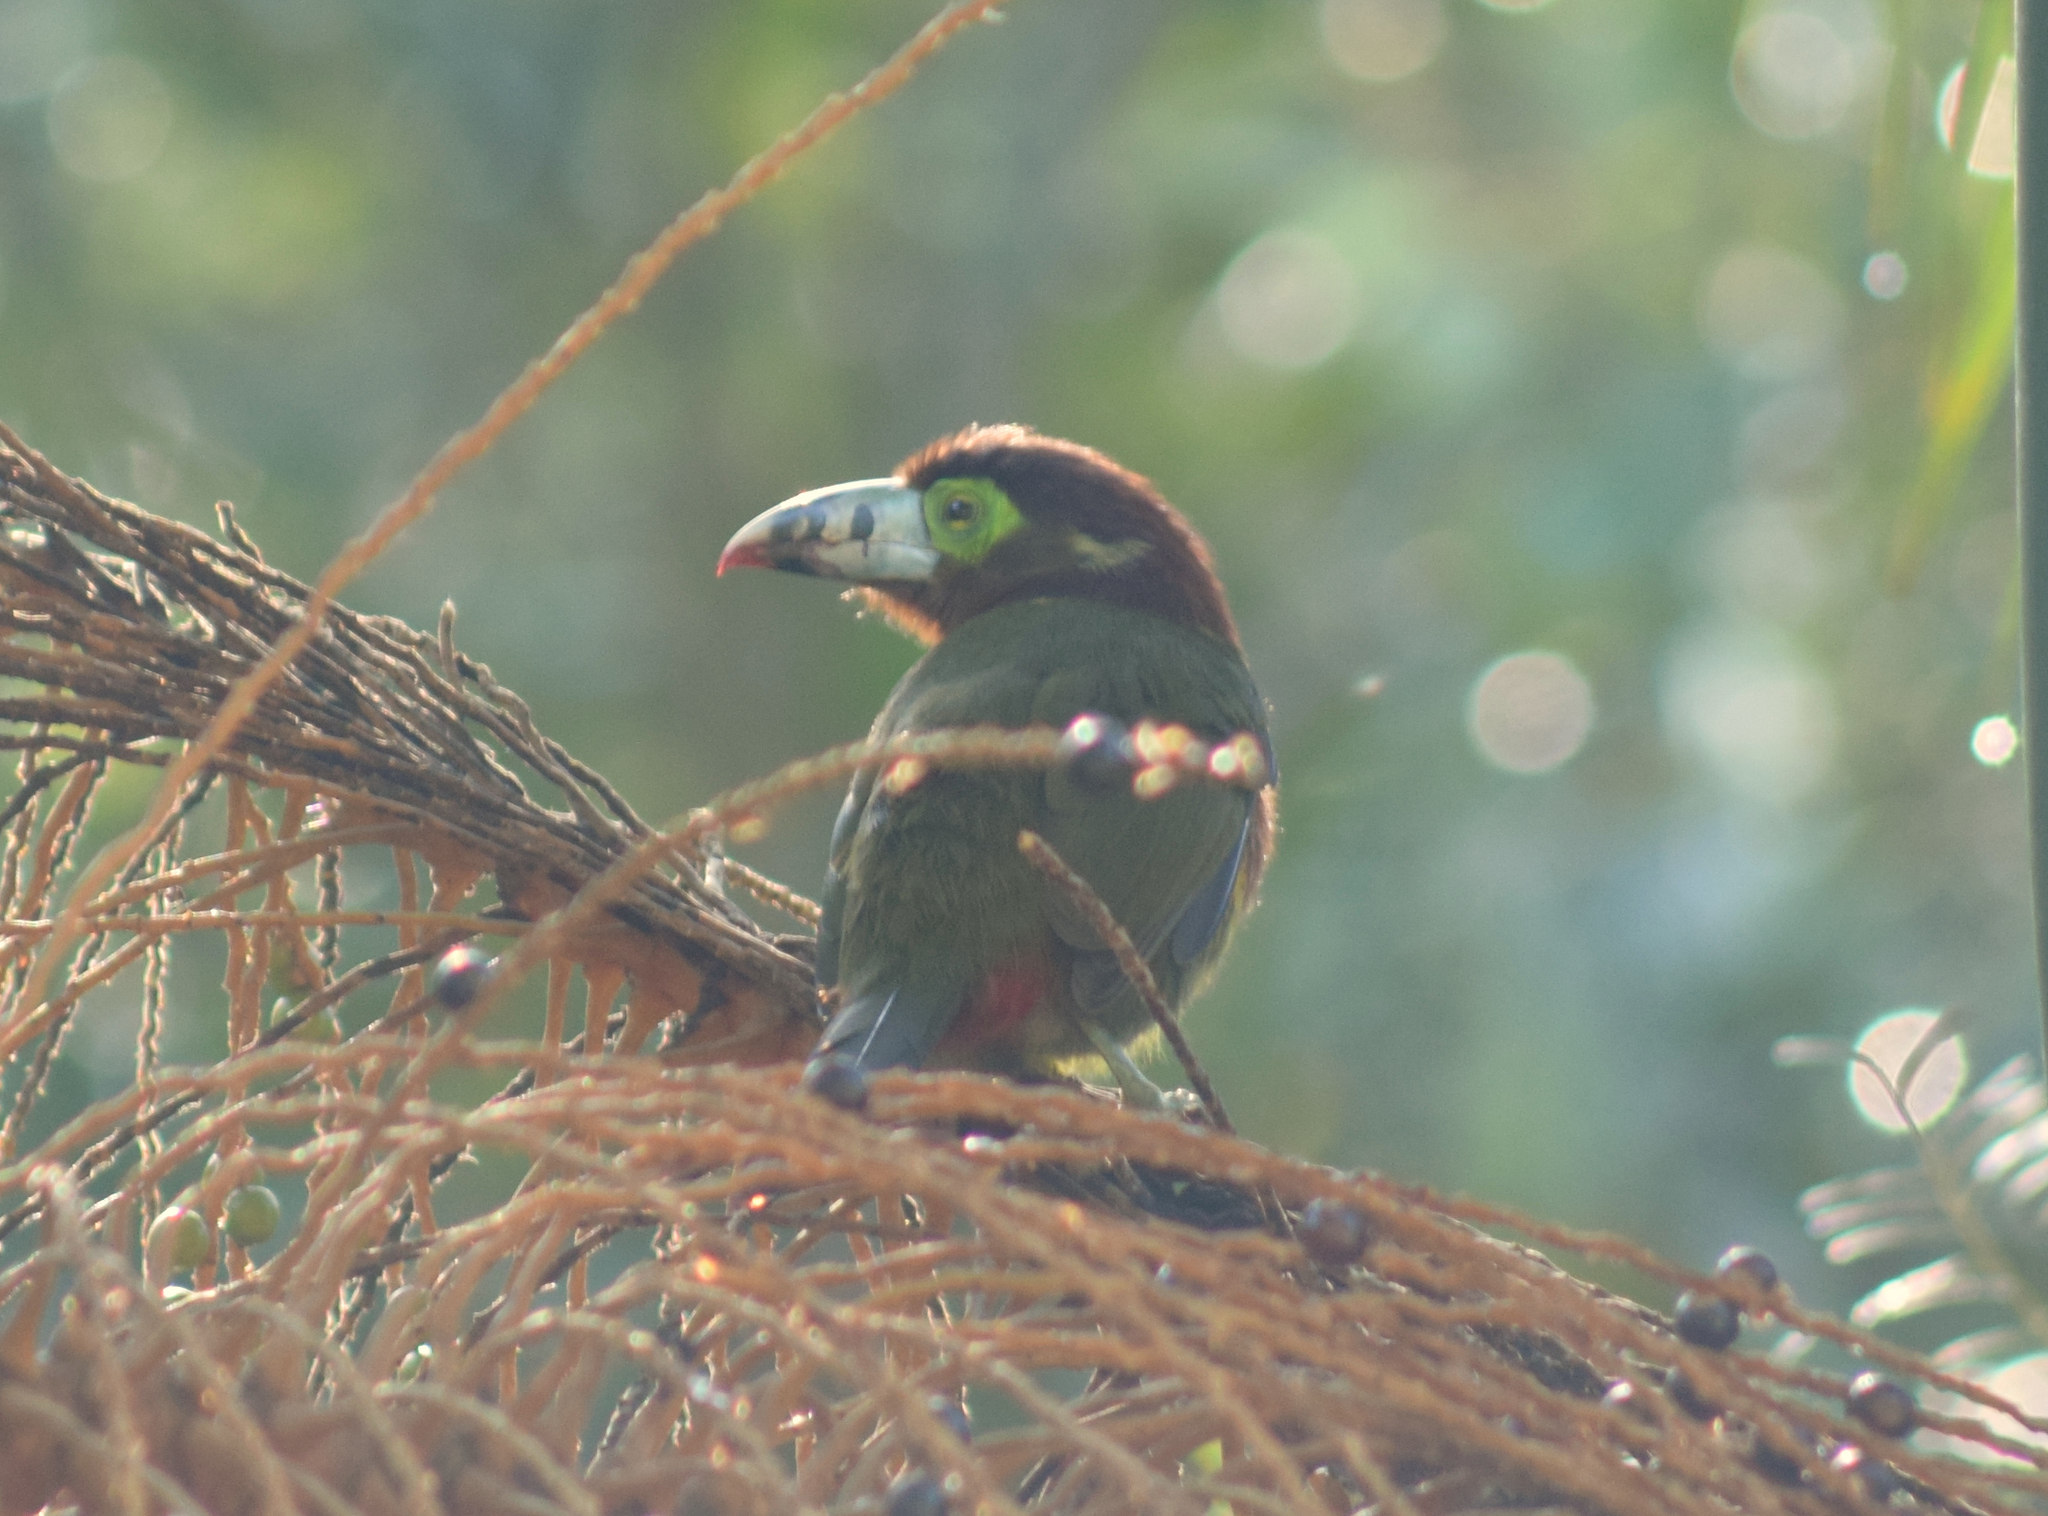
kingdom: Animalia
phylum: Chordata
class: Aves
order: Piciformes
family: Ramphastidae
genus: Selenidera
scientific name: Selenidera maculirostris
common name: Spot-billed toucanet
